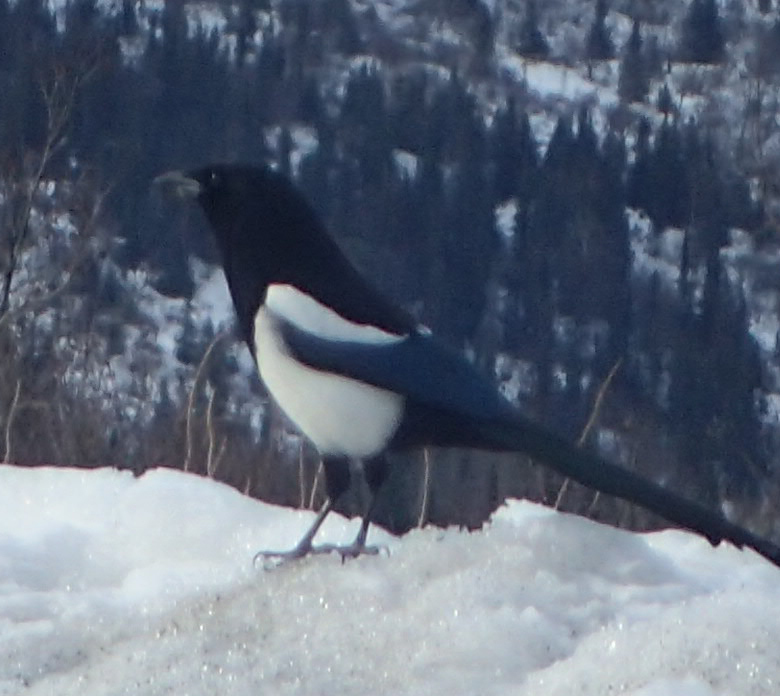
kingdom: Animalia
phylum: Chordata
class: Aves
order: Passeriformes
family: Corvidae
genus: Pica
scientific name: Pica hudsonia
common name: Black-billed magpie
